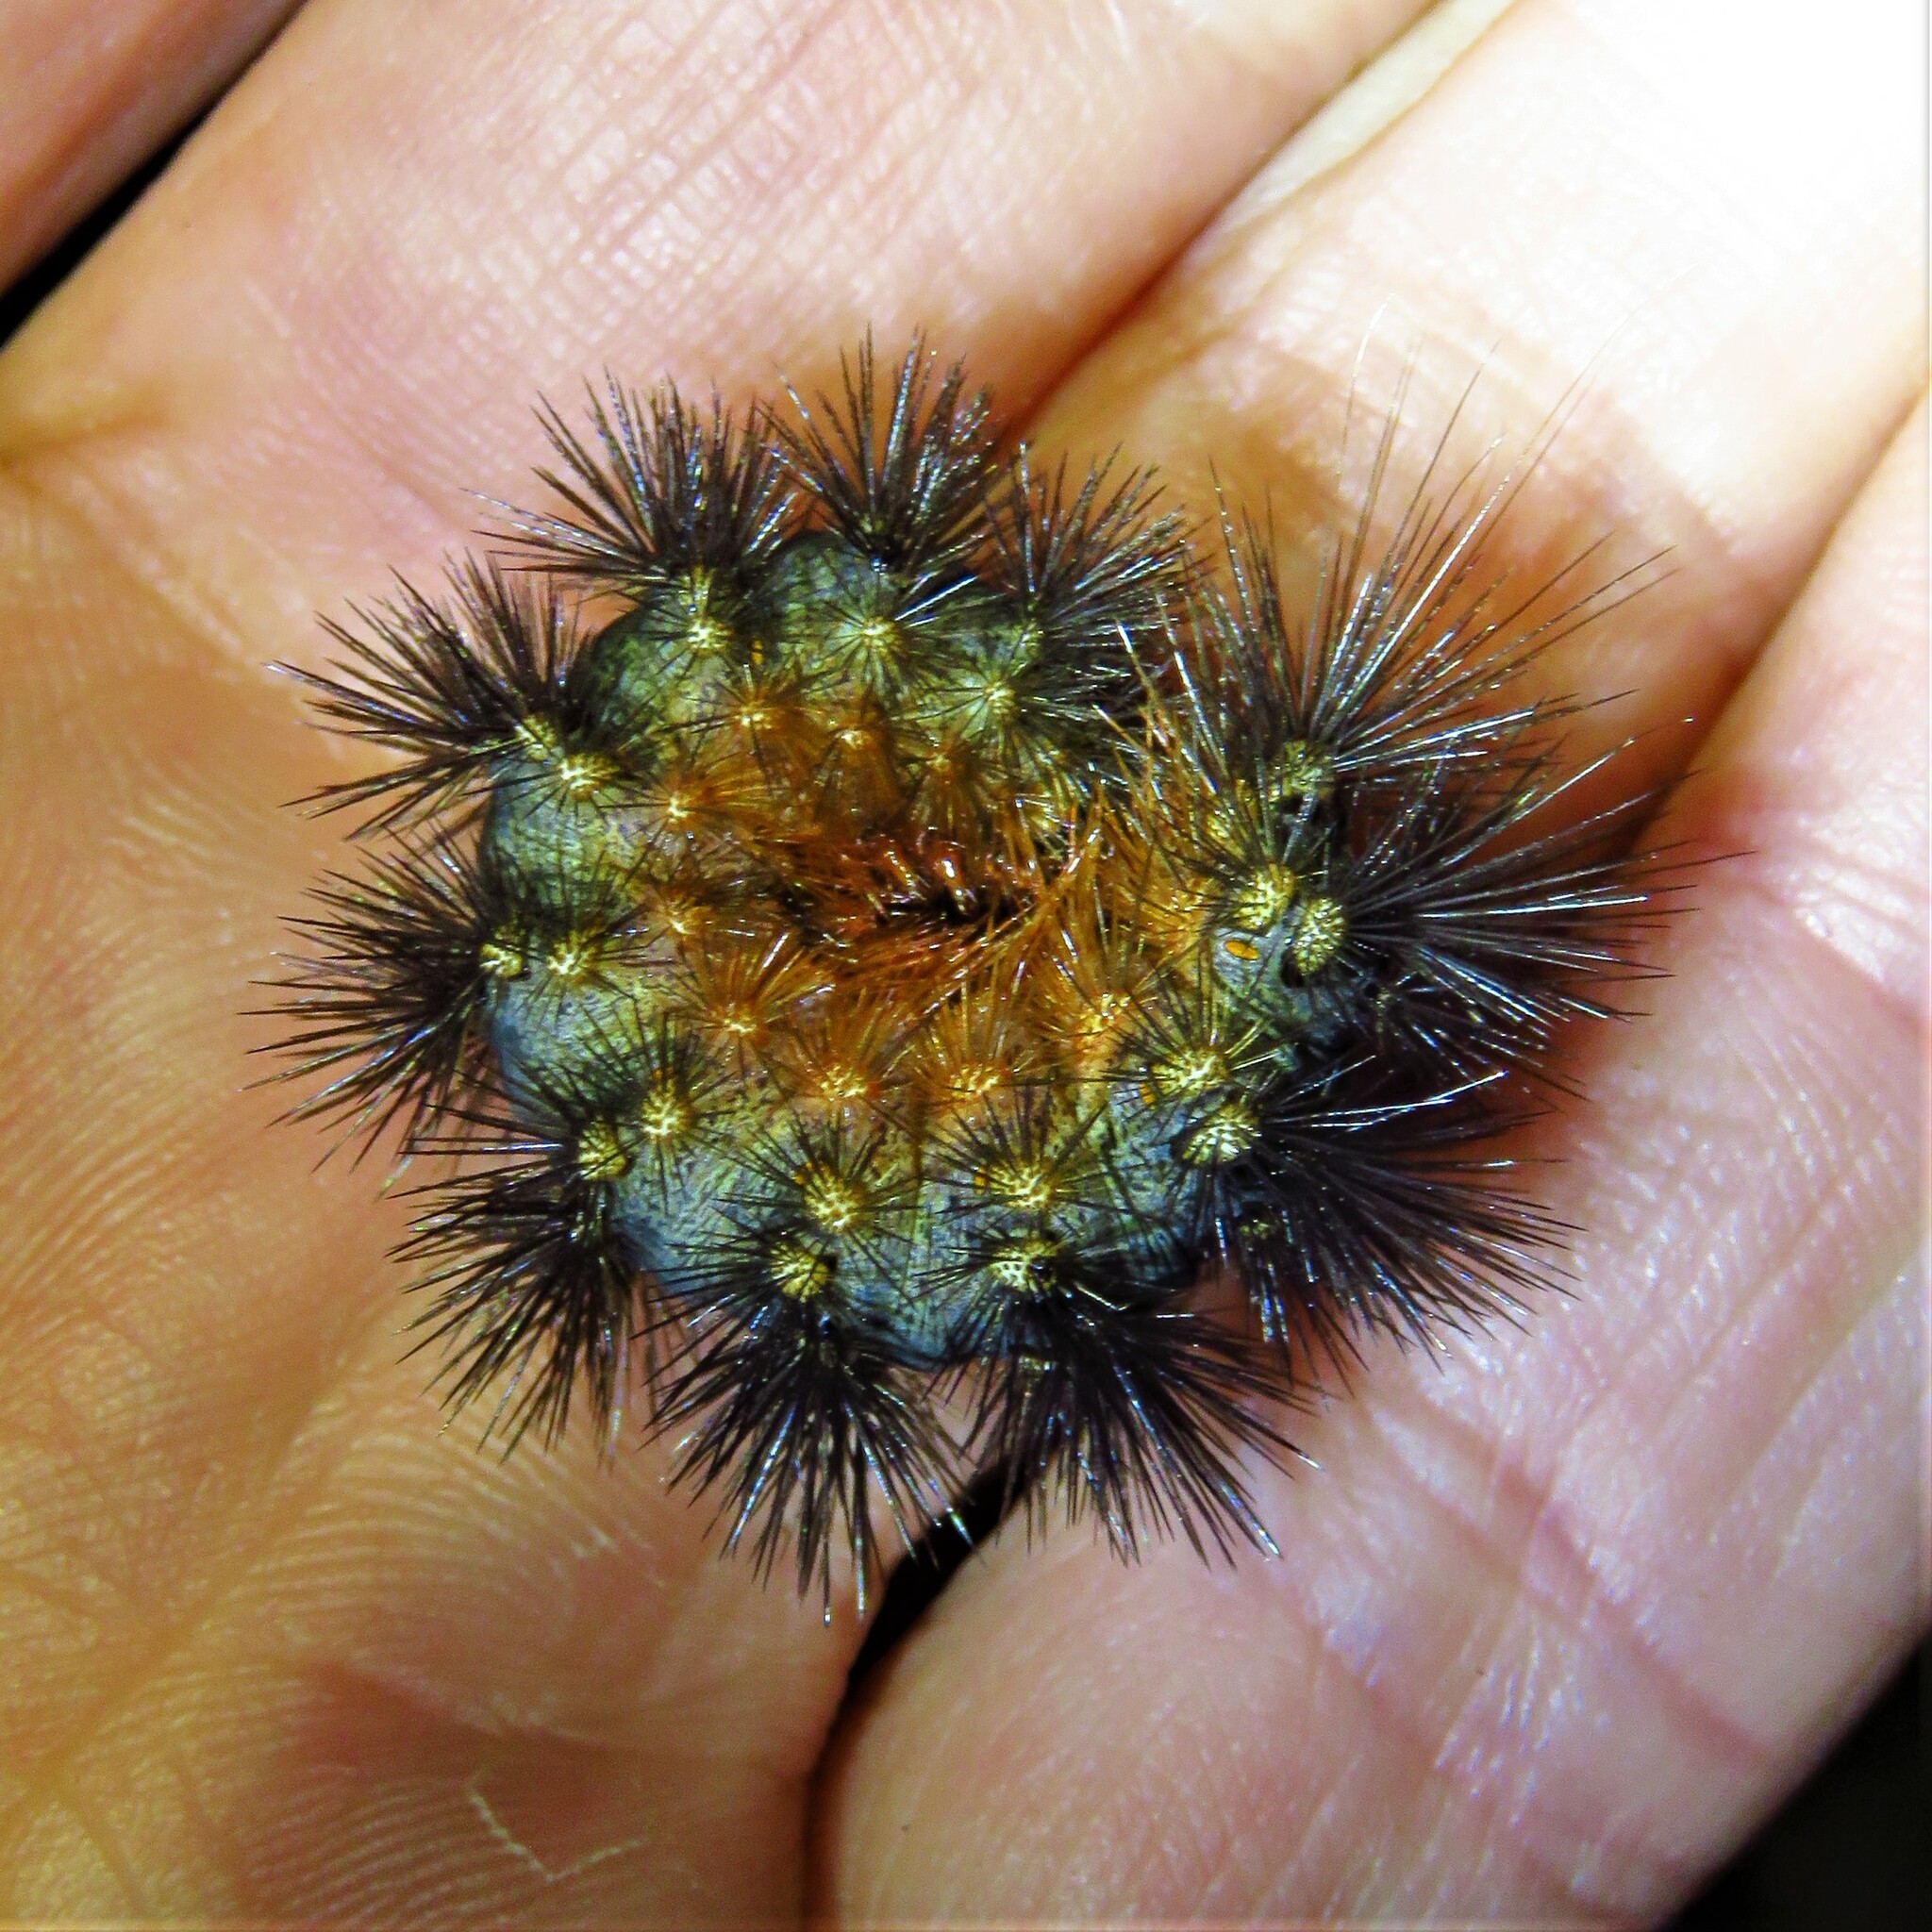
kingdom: Animalia
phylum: Arthropoda
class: Insecta
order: Lepidoptera
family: Erebidae
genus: Estigmene
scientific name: Estigmene acrea
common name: Salt marsh moth
